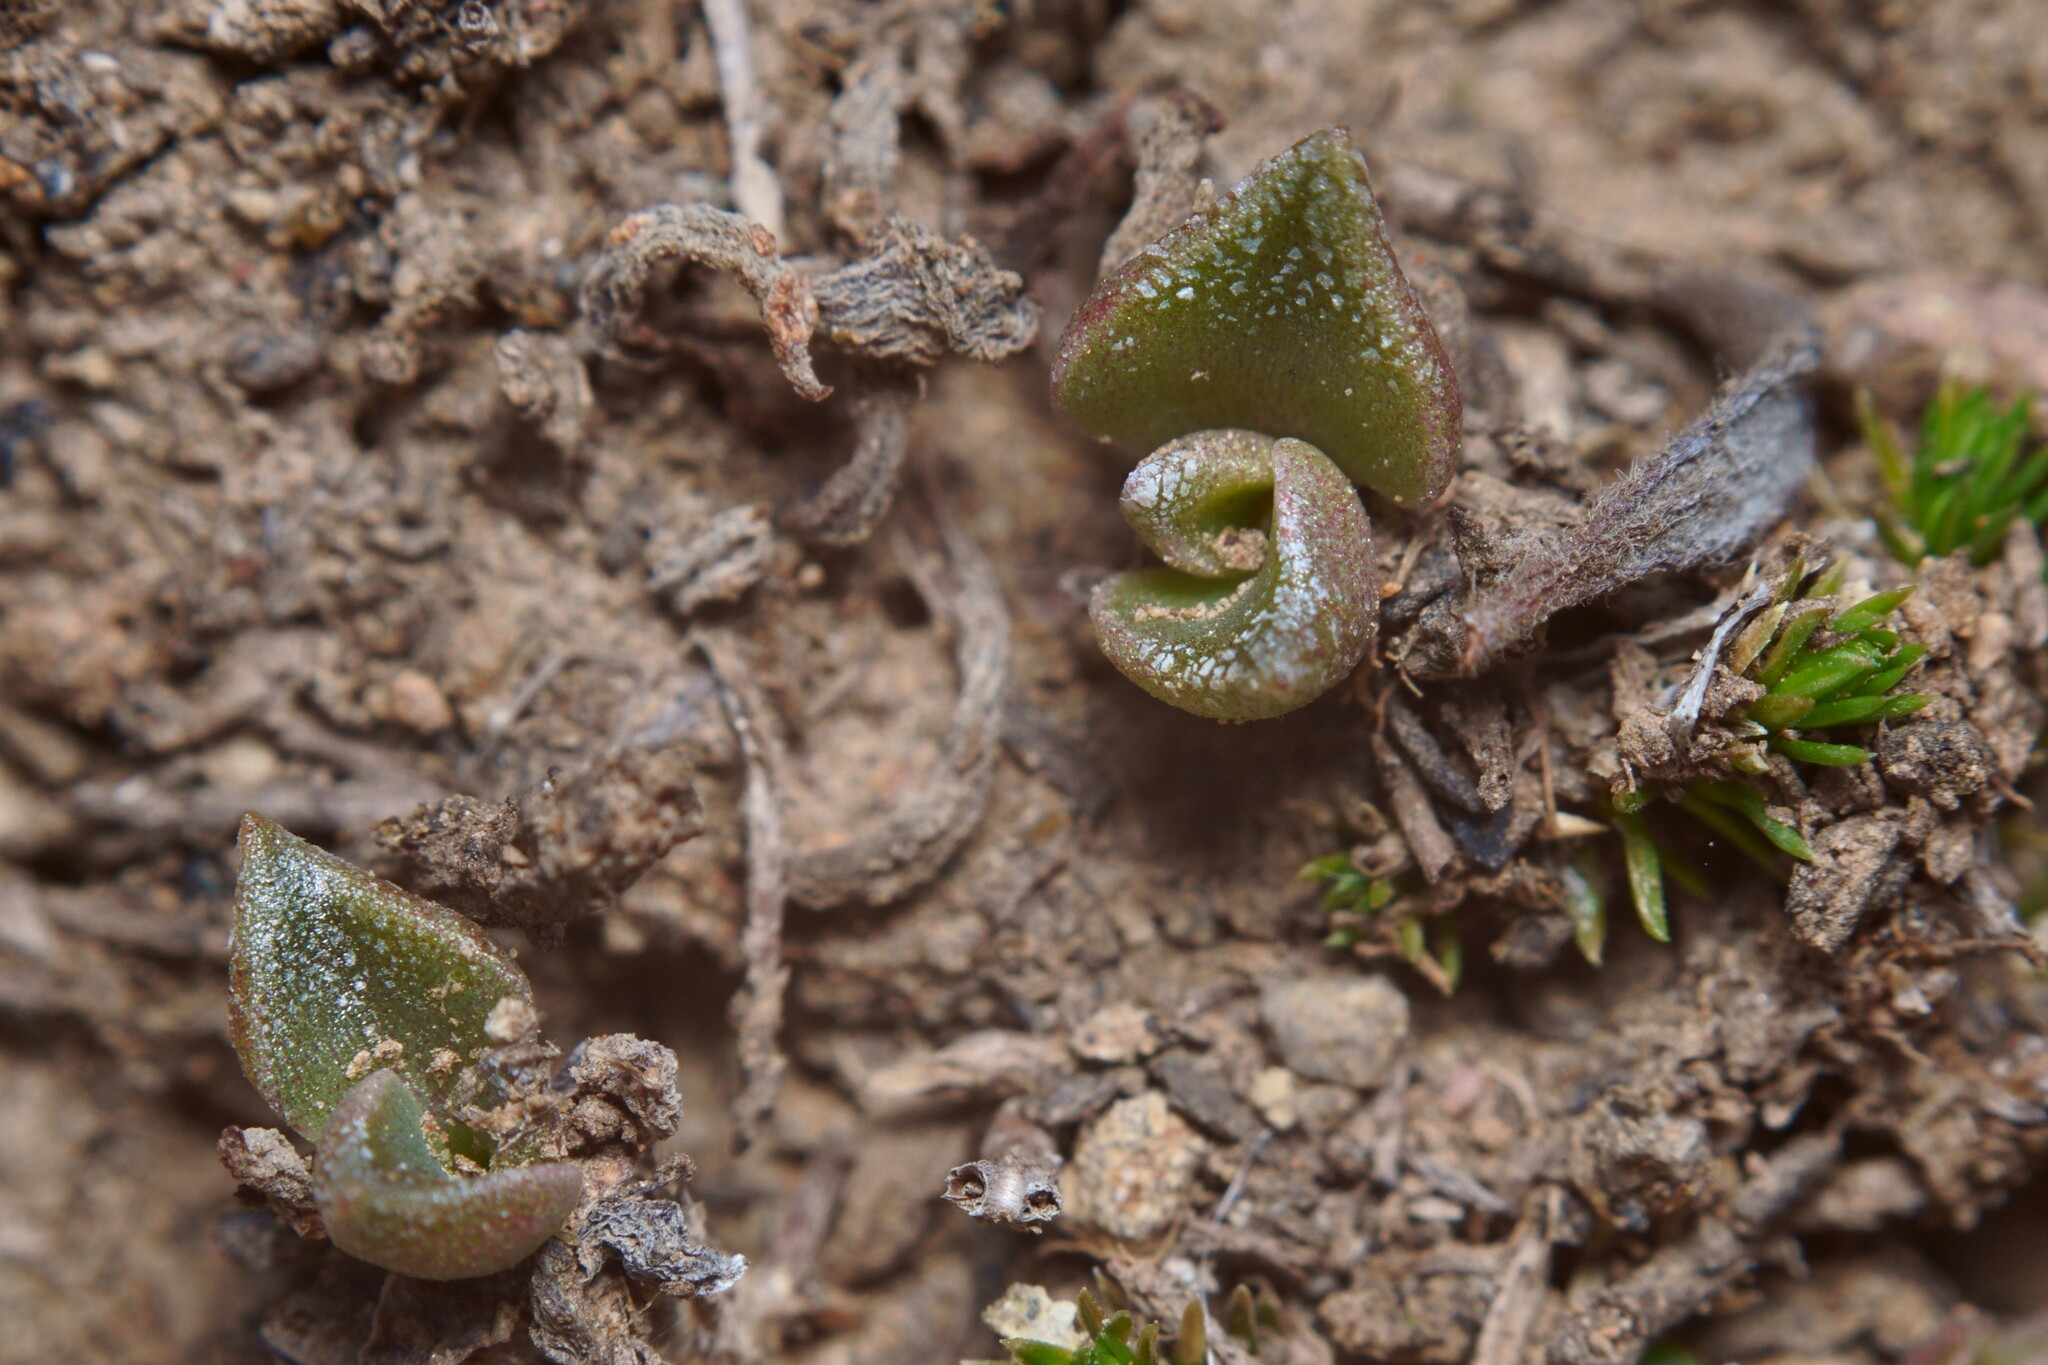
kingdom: Plantae
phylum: Tracheophyta
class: Magnoliopsida
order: Saxifragales
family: Crassulaceae
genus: Dudleya
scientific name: Dudleya parva
